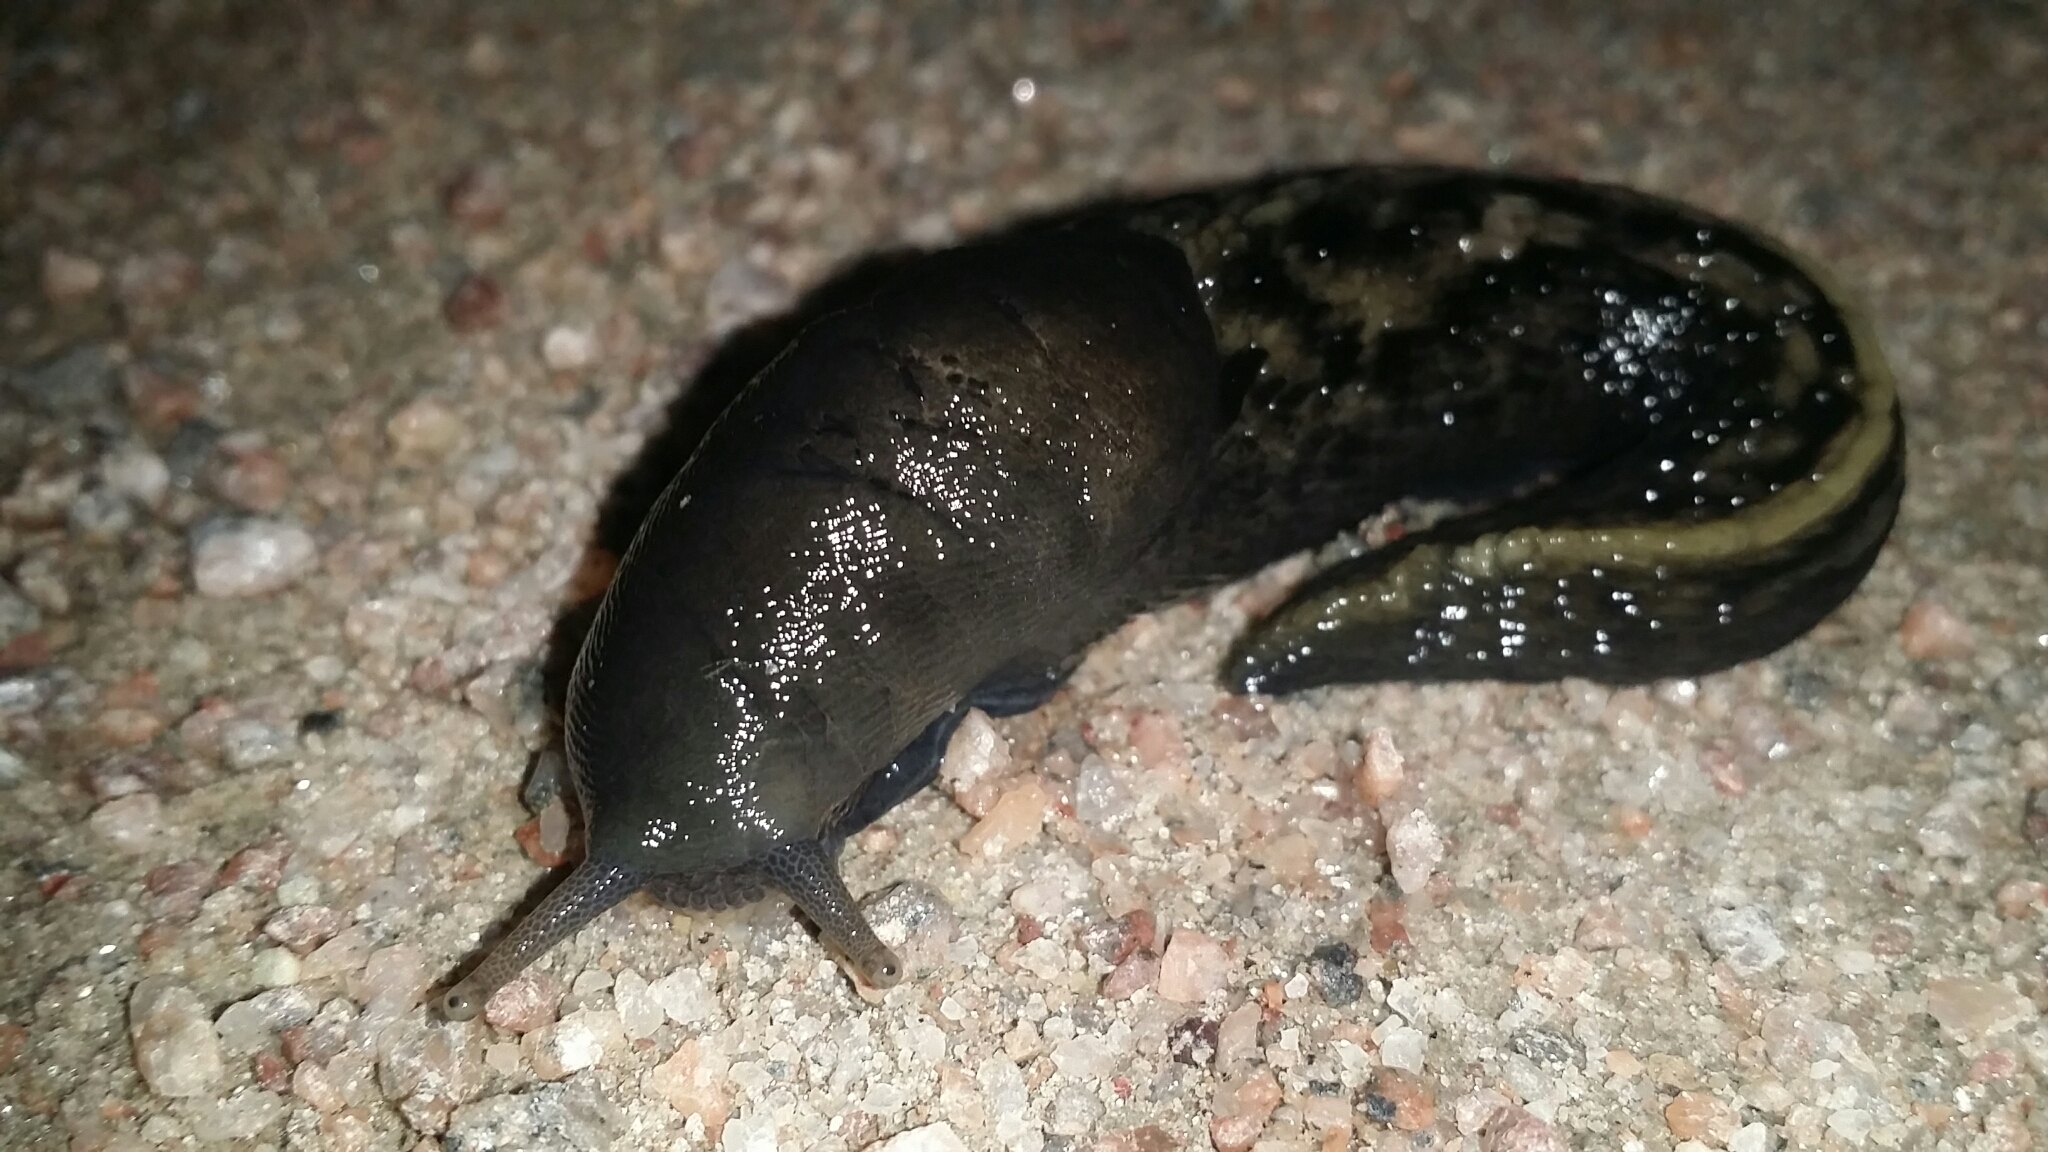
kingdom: Animalia
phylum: Mollusca
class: Gastropoda
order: Stylommatophora
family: Limacidae
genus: Limax
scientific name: Limax cinereoniger
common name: Ash-black slug
